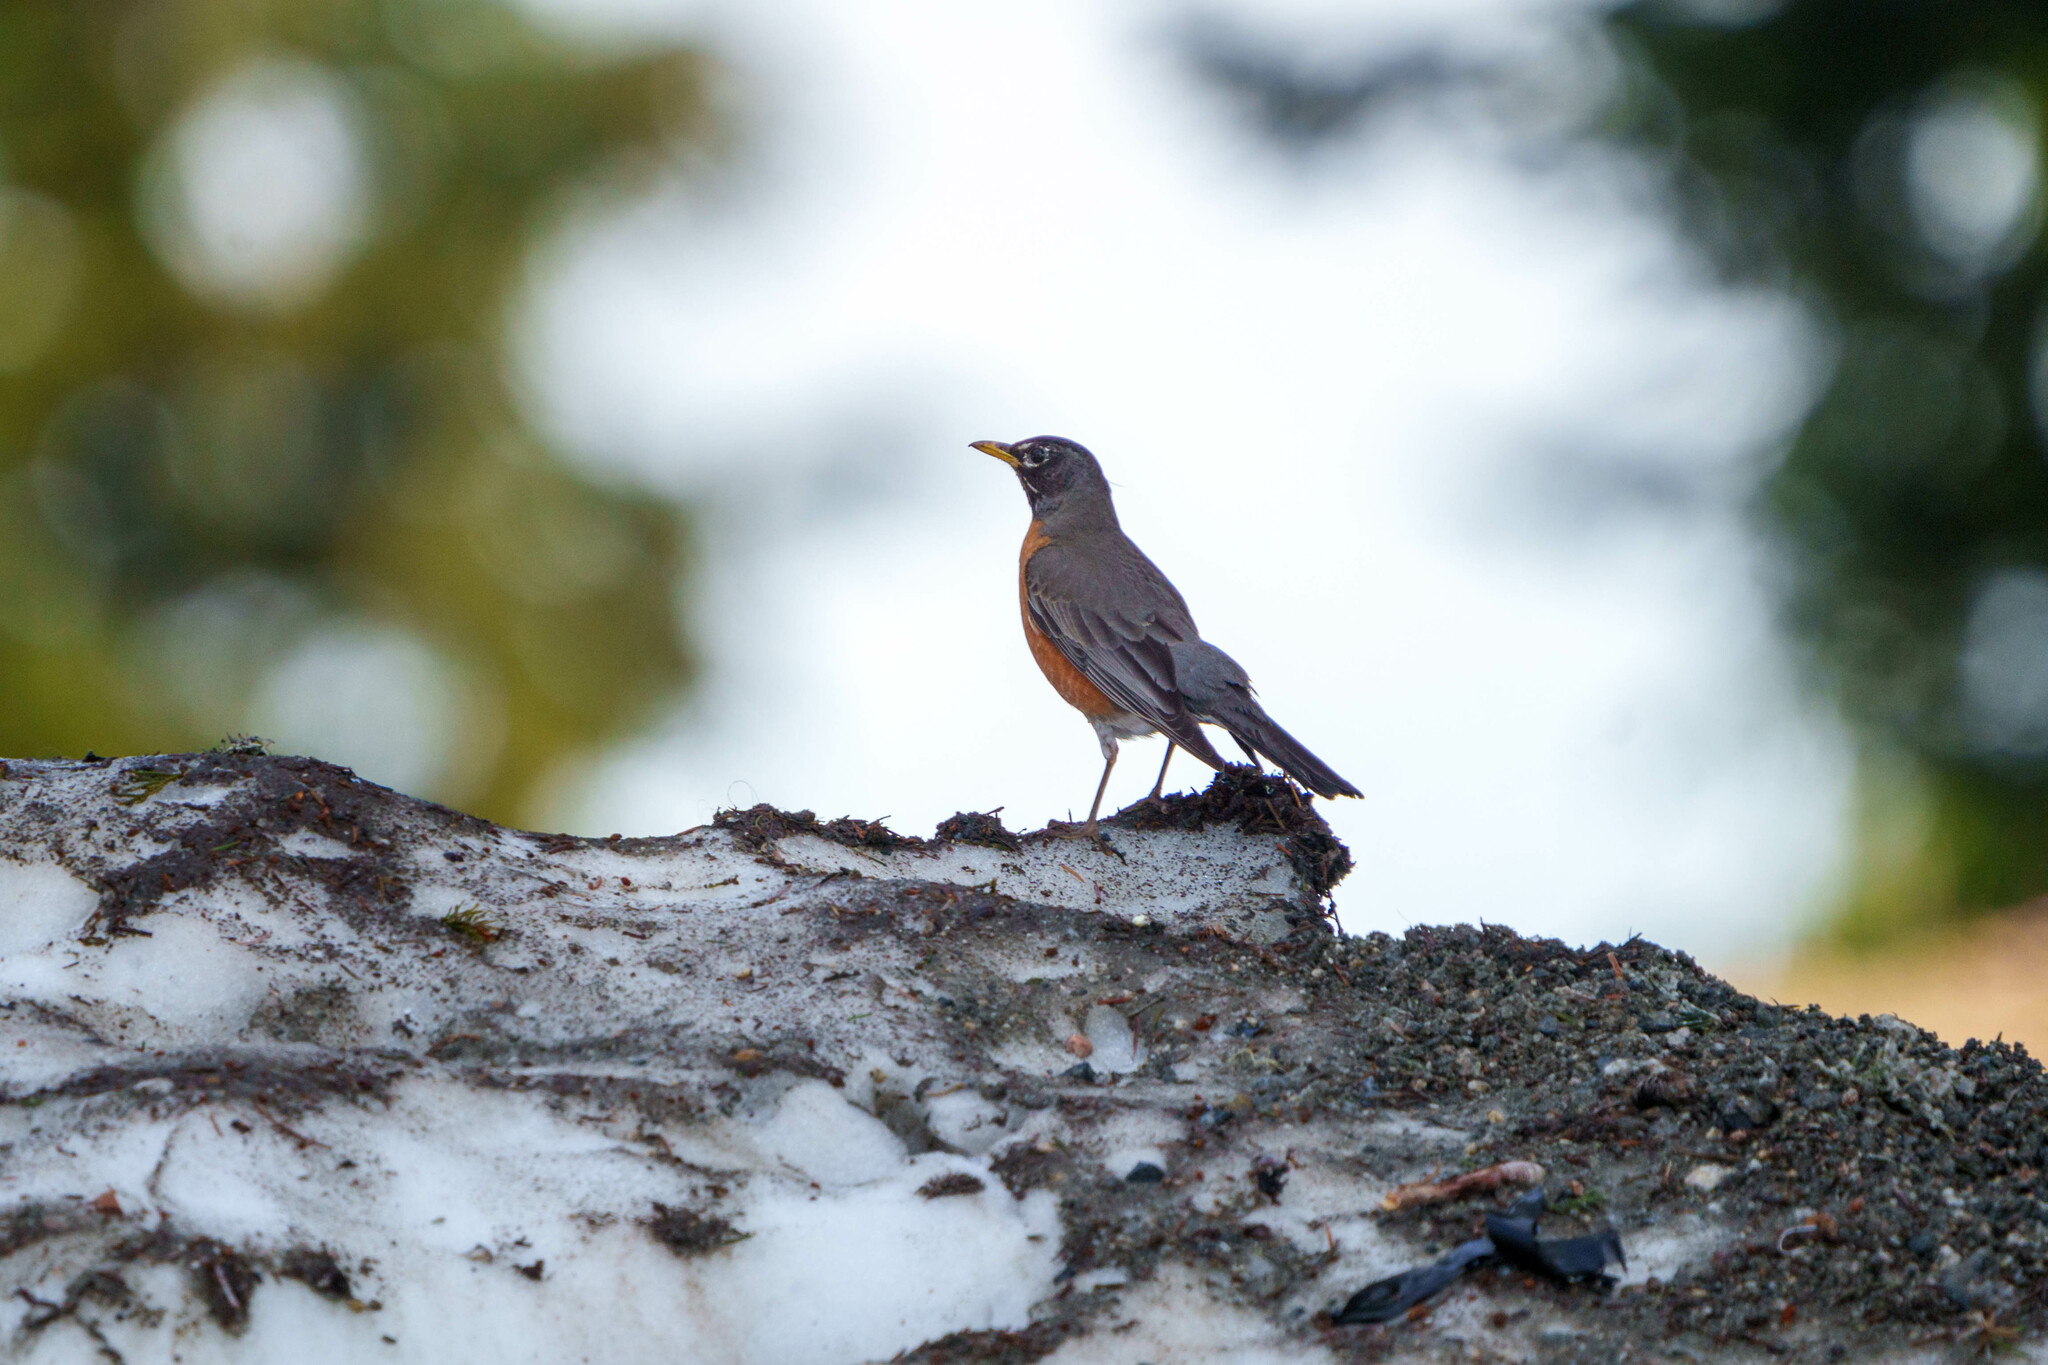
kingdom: Animalia
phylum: Chordata
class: Aves
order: Passeriformes
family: Turdidae
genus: Turdus
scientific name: Turdus migratorius
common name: American robin
